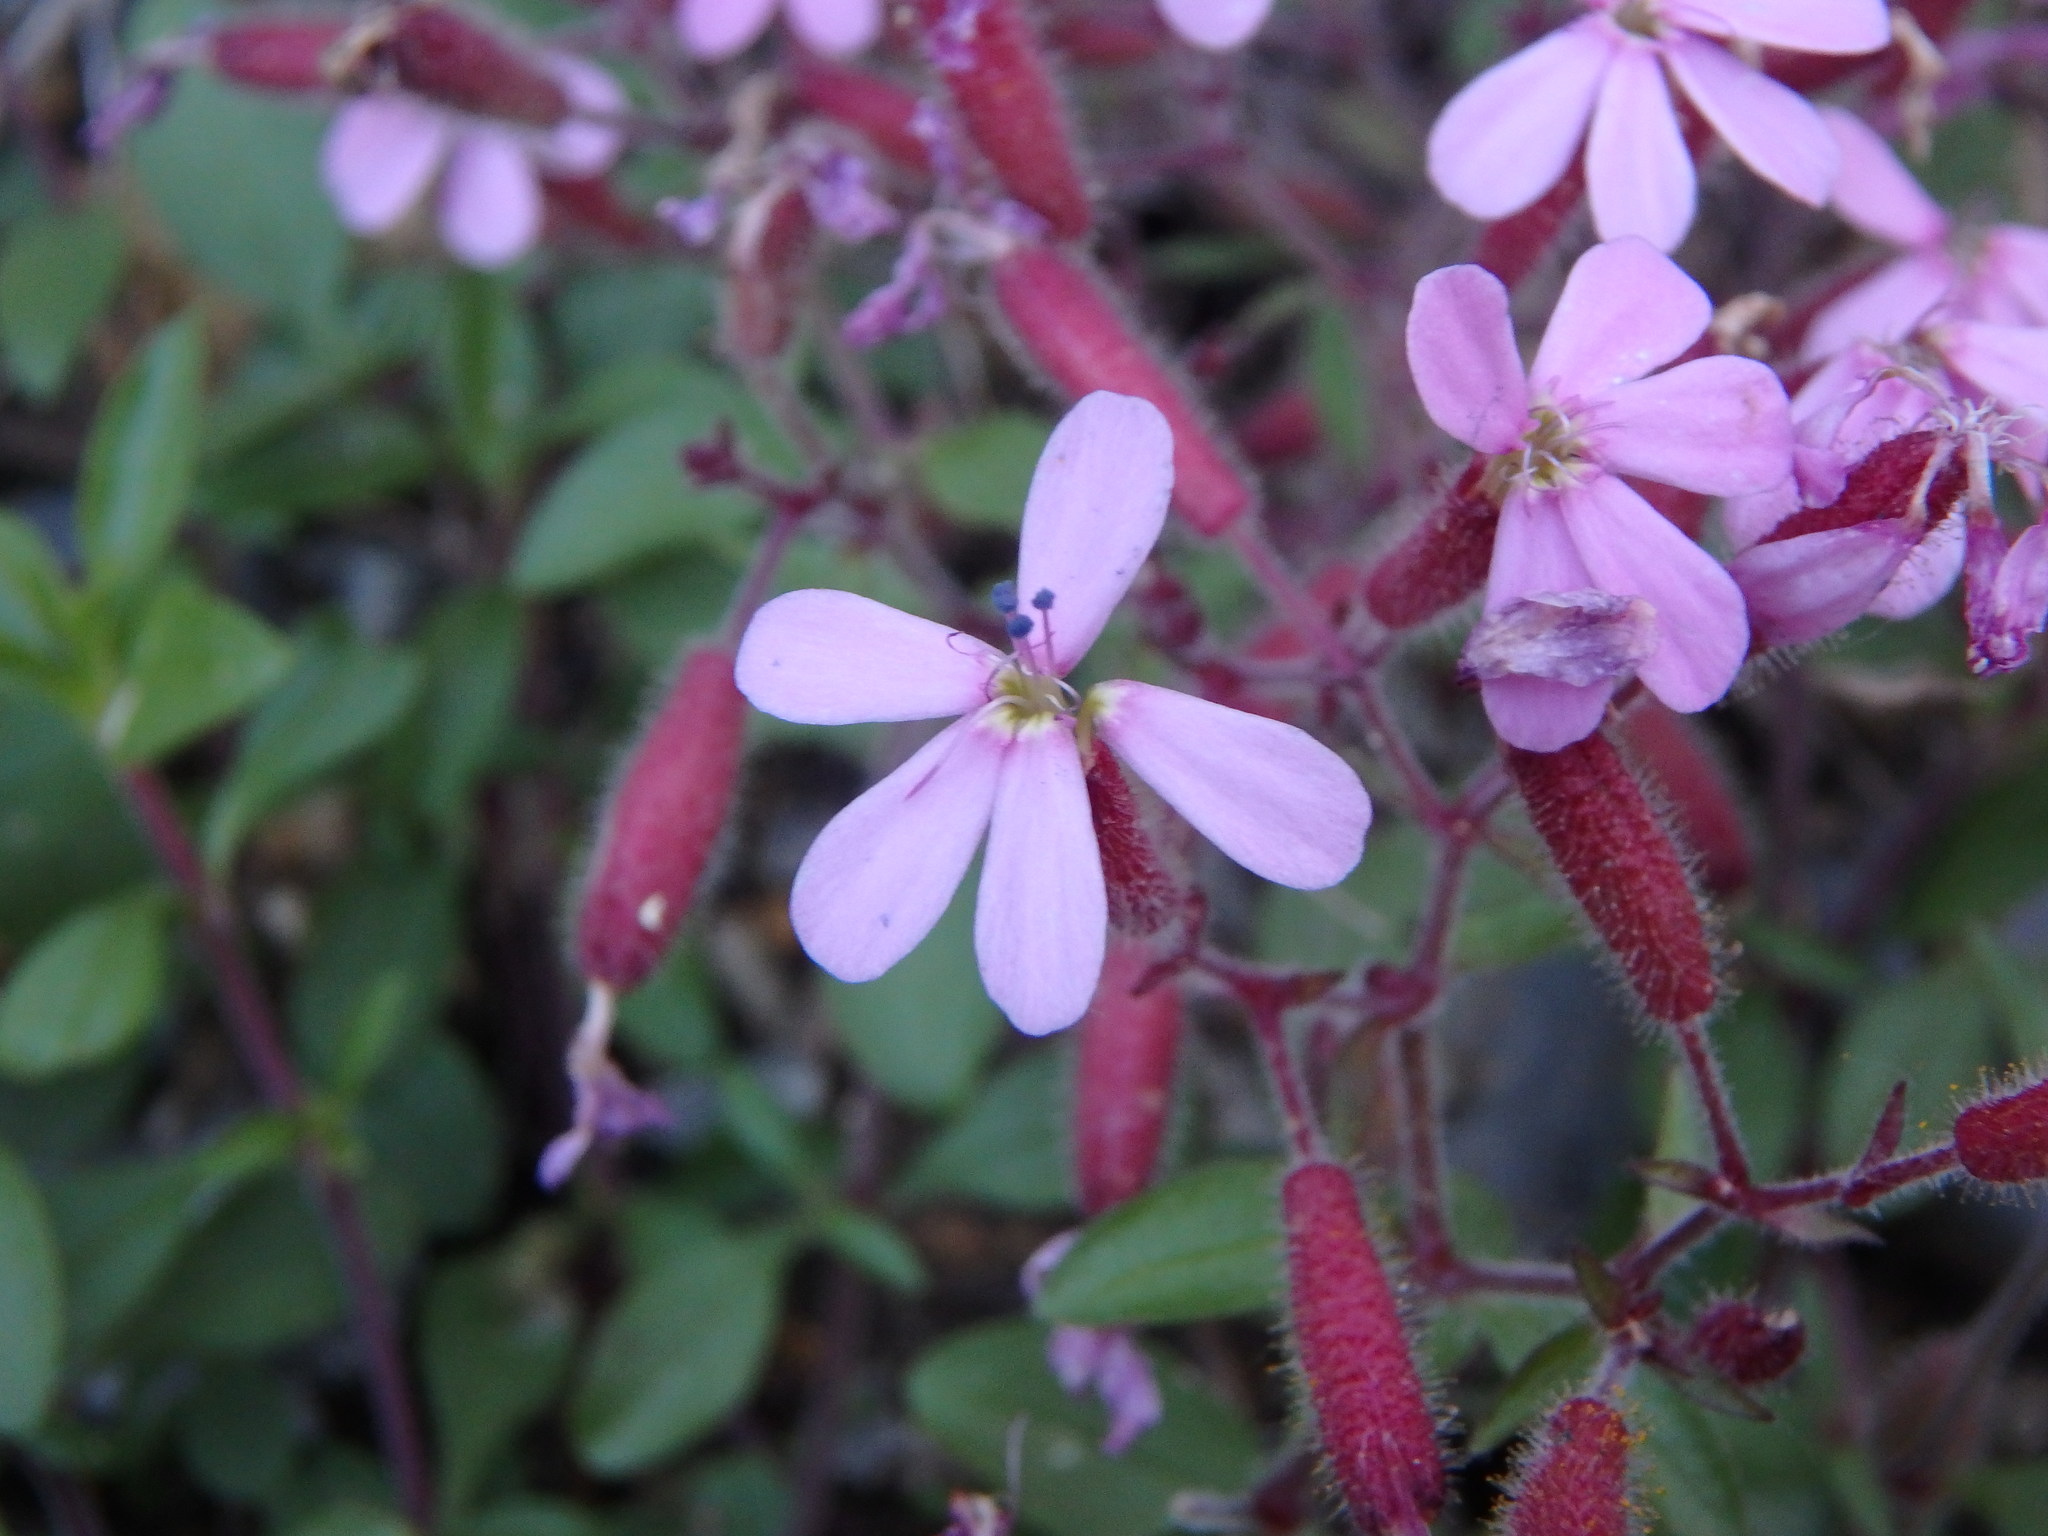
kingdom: Plantae
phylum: Tracheophyta
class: Magnoliopsida
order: Caryophyllales
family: Caryophyllaceae
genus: Saponaria
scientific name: Saponaria ocymoides
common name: Rock soapwort
